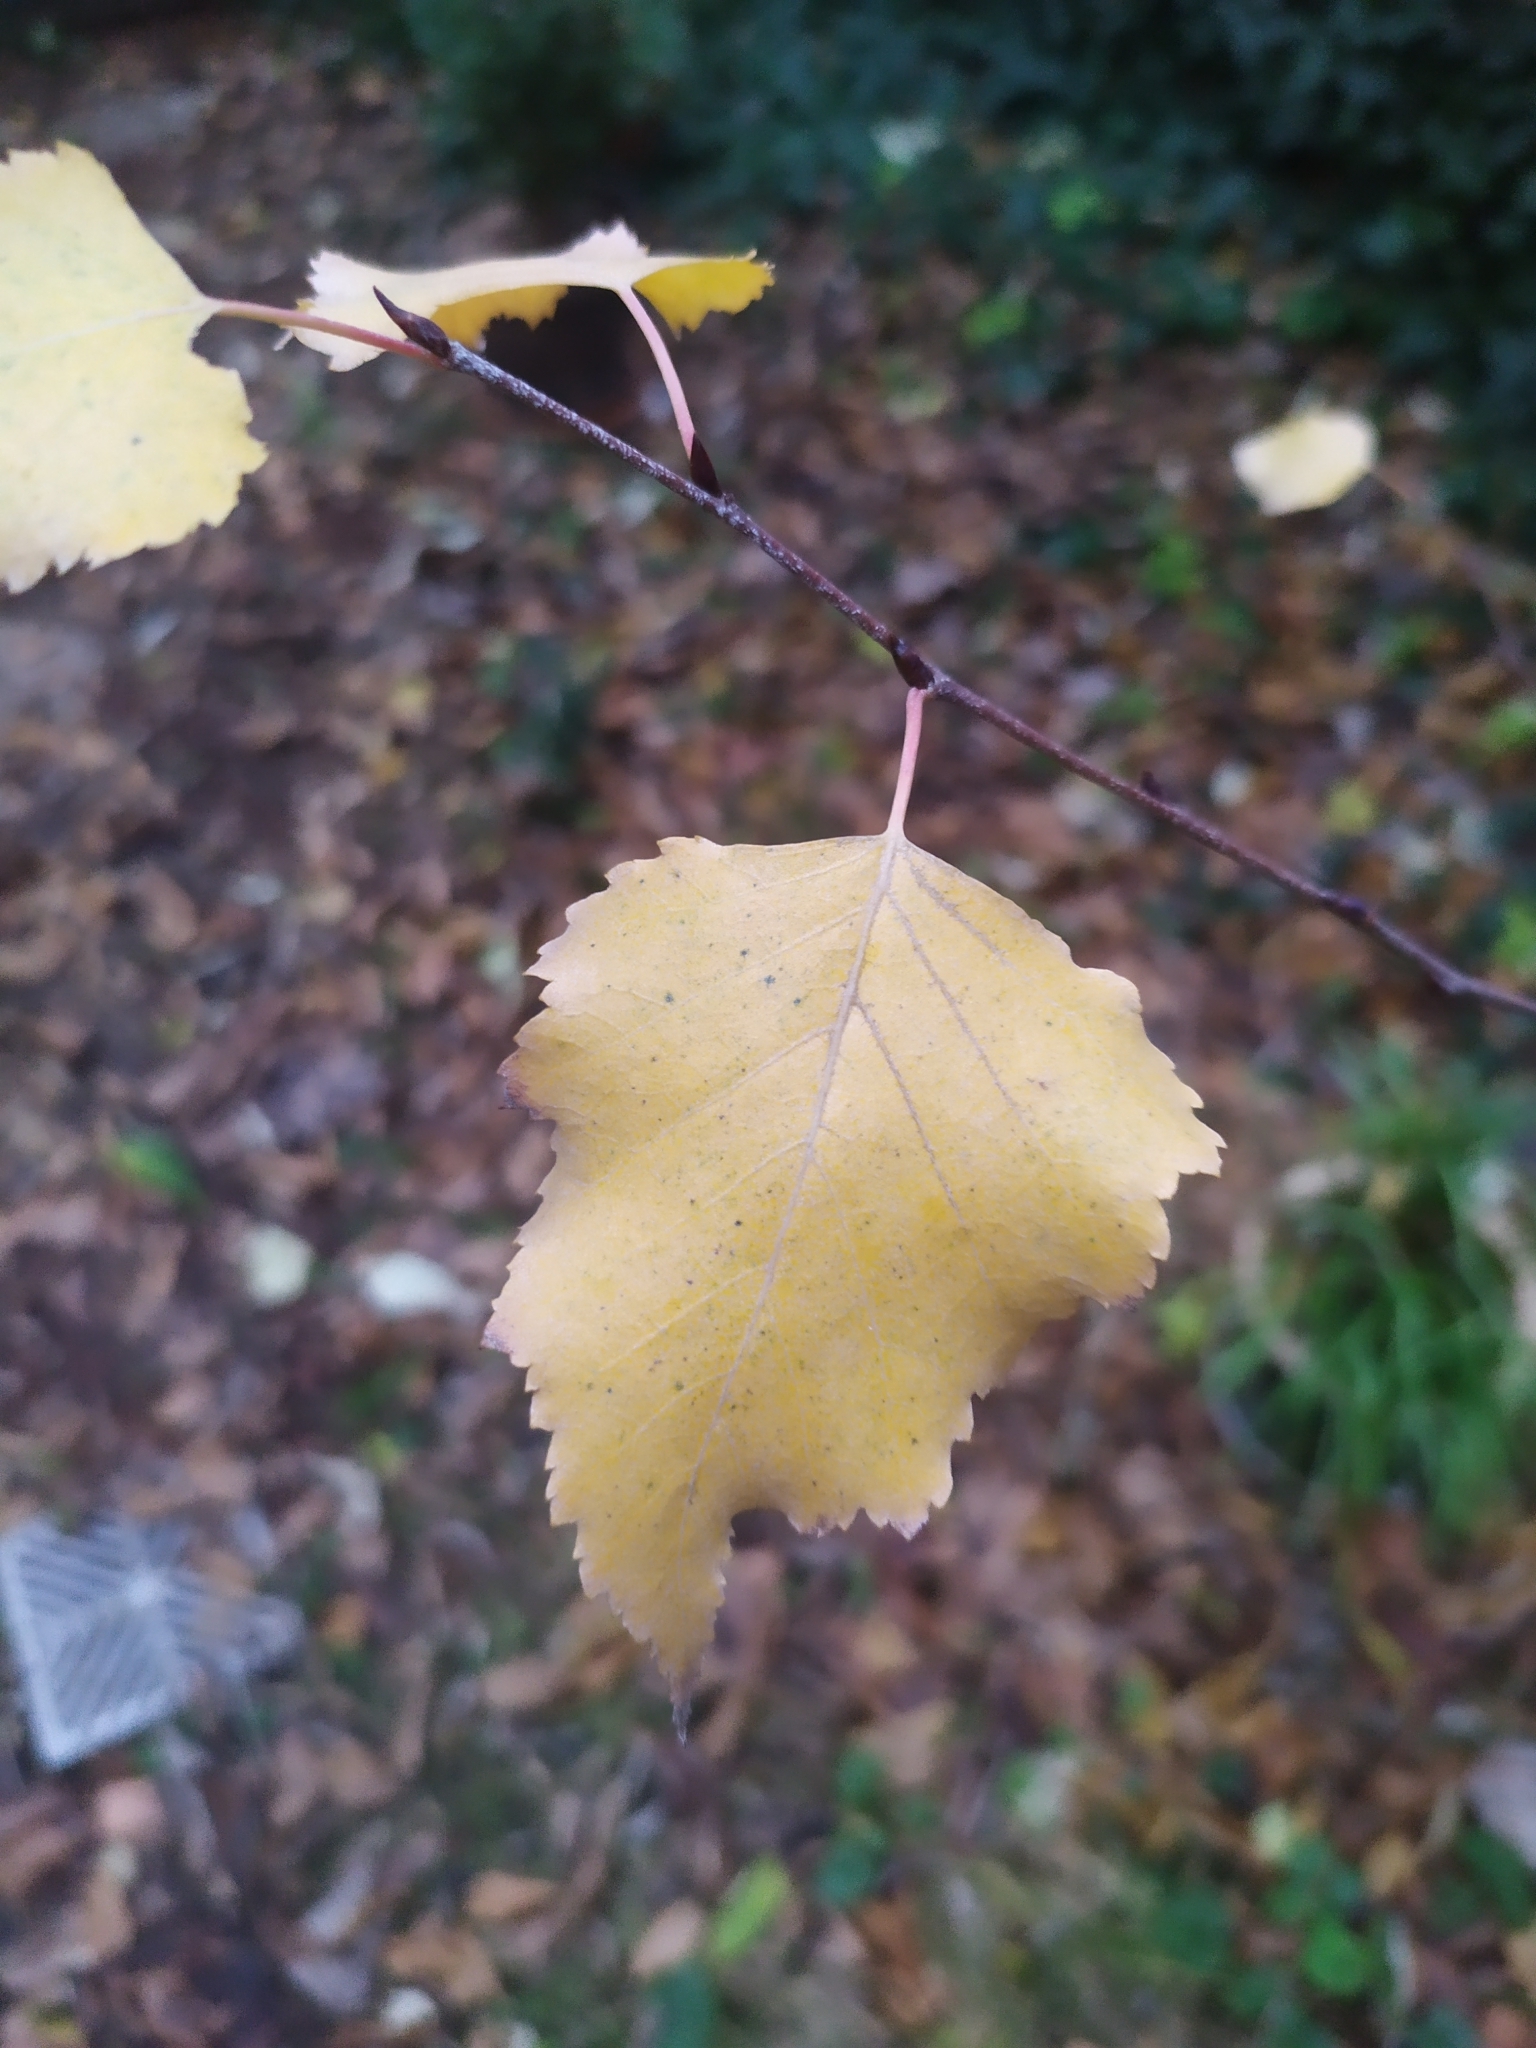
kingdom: Fungi
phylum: Ascomycota
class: Leotiomycetes
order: Helotiales
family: Erysiphaceae
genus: Phyllactinia
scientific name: Phyllactinia guttata
